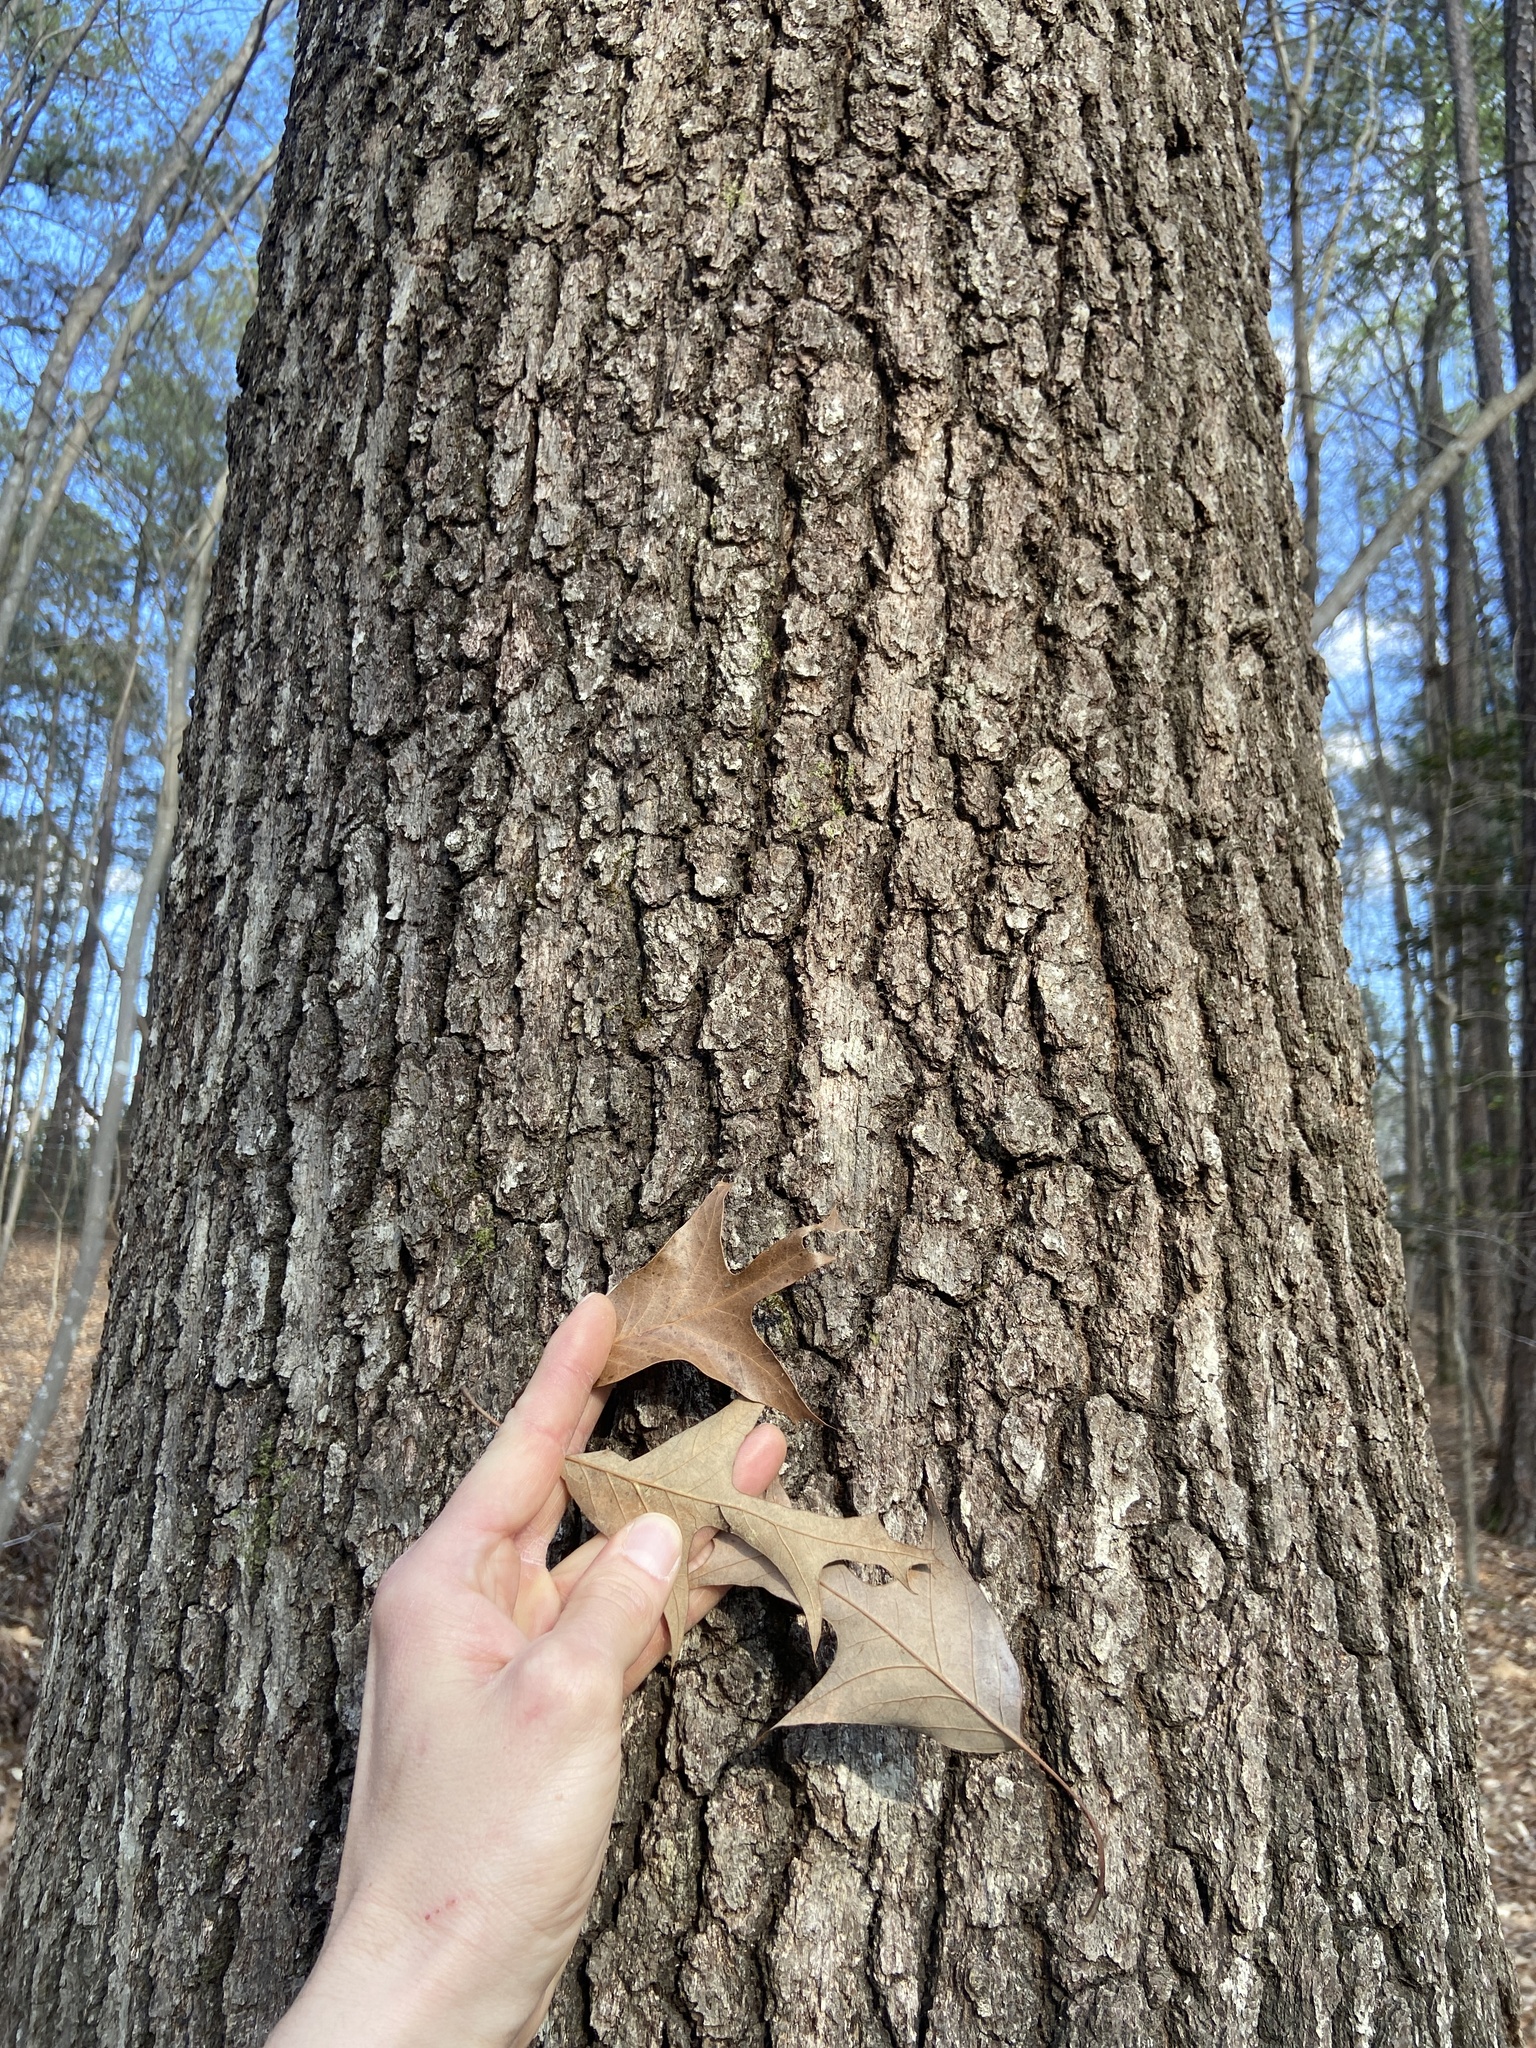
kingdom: Plantae
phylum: Tracheophyta
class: Magnoliopsida
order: Fagales
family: Fagaceae
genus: Quercus
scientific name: Quercus falcata
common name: Southern red oak
